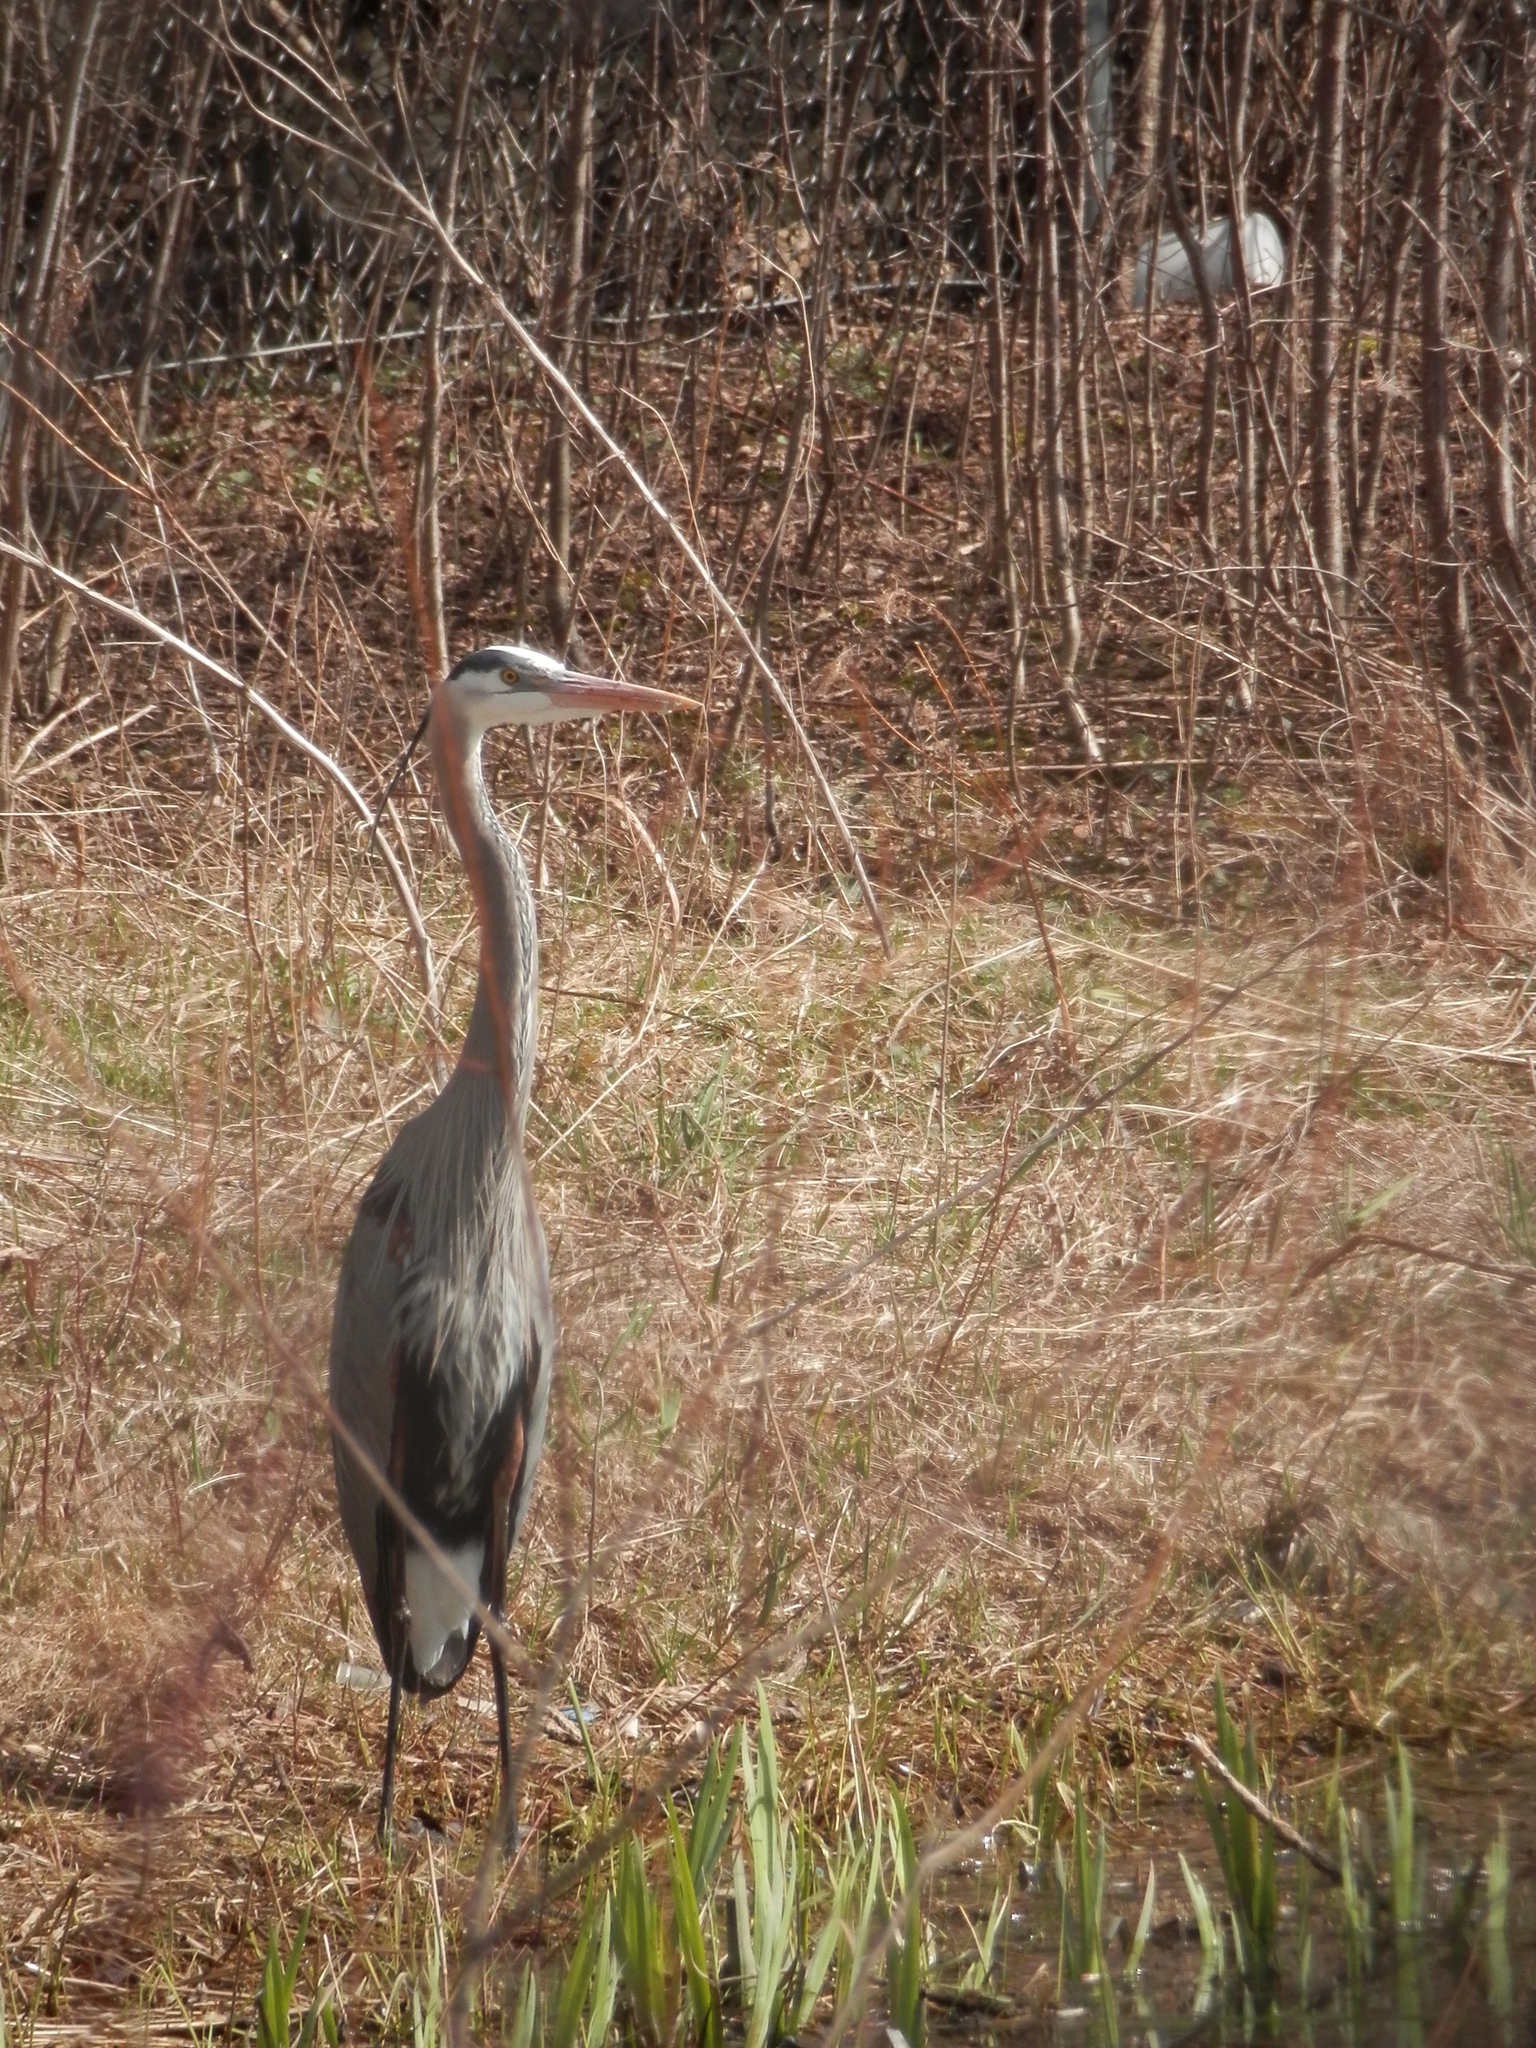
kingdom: Animalia
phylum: Chordata
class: Aves
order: Pelecaniformes
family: Ardeidae
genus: Ardea
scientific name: Ardea herodias
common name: Great blue heron
